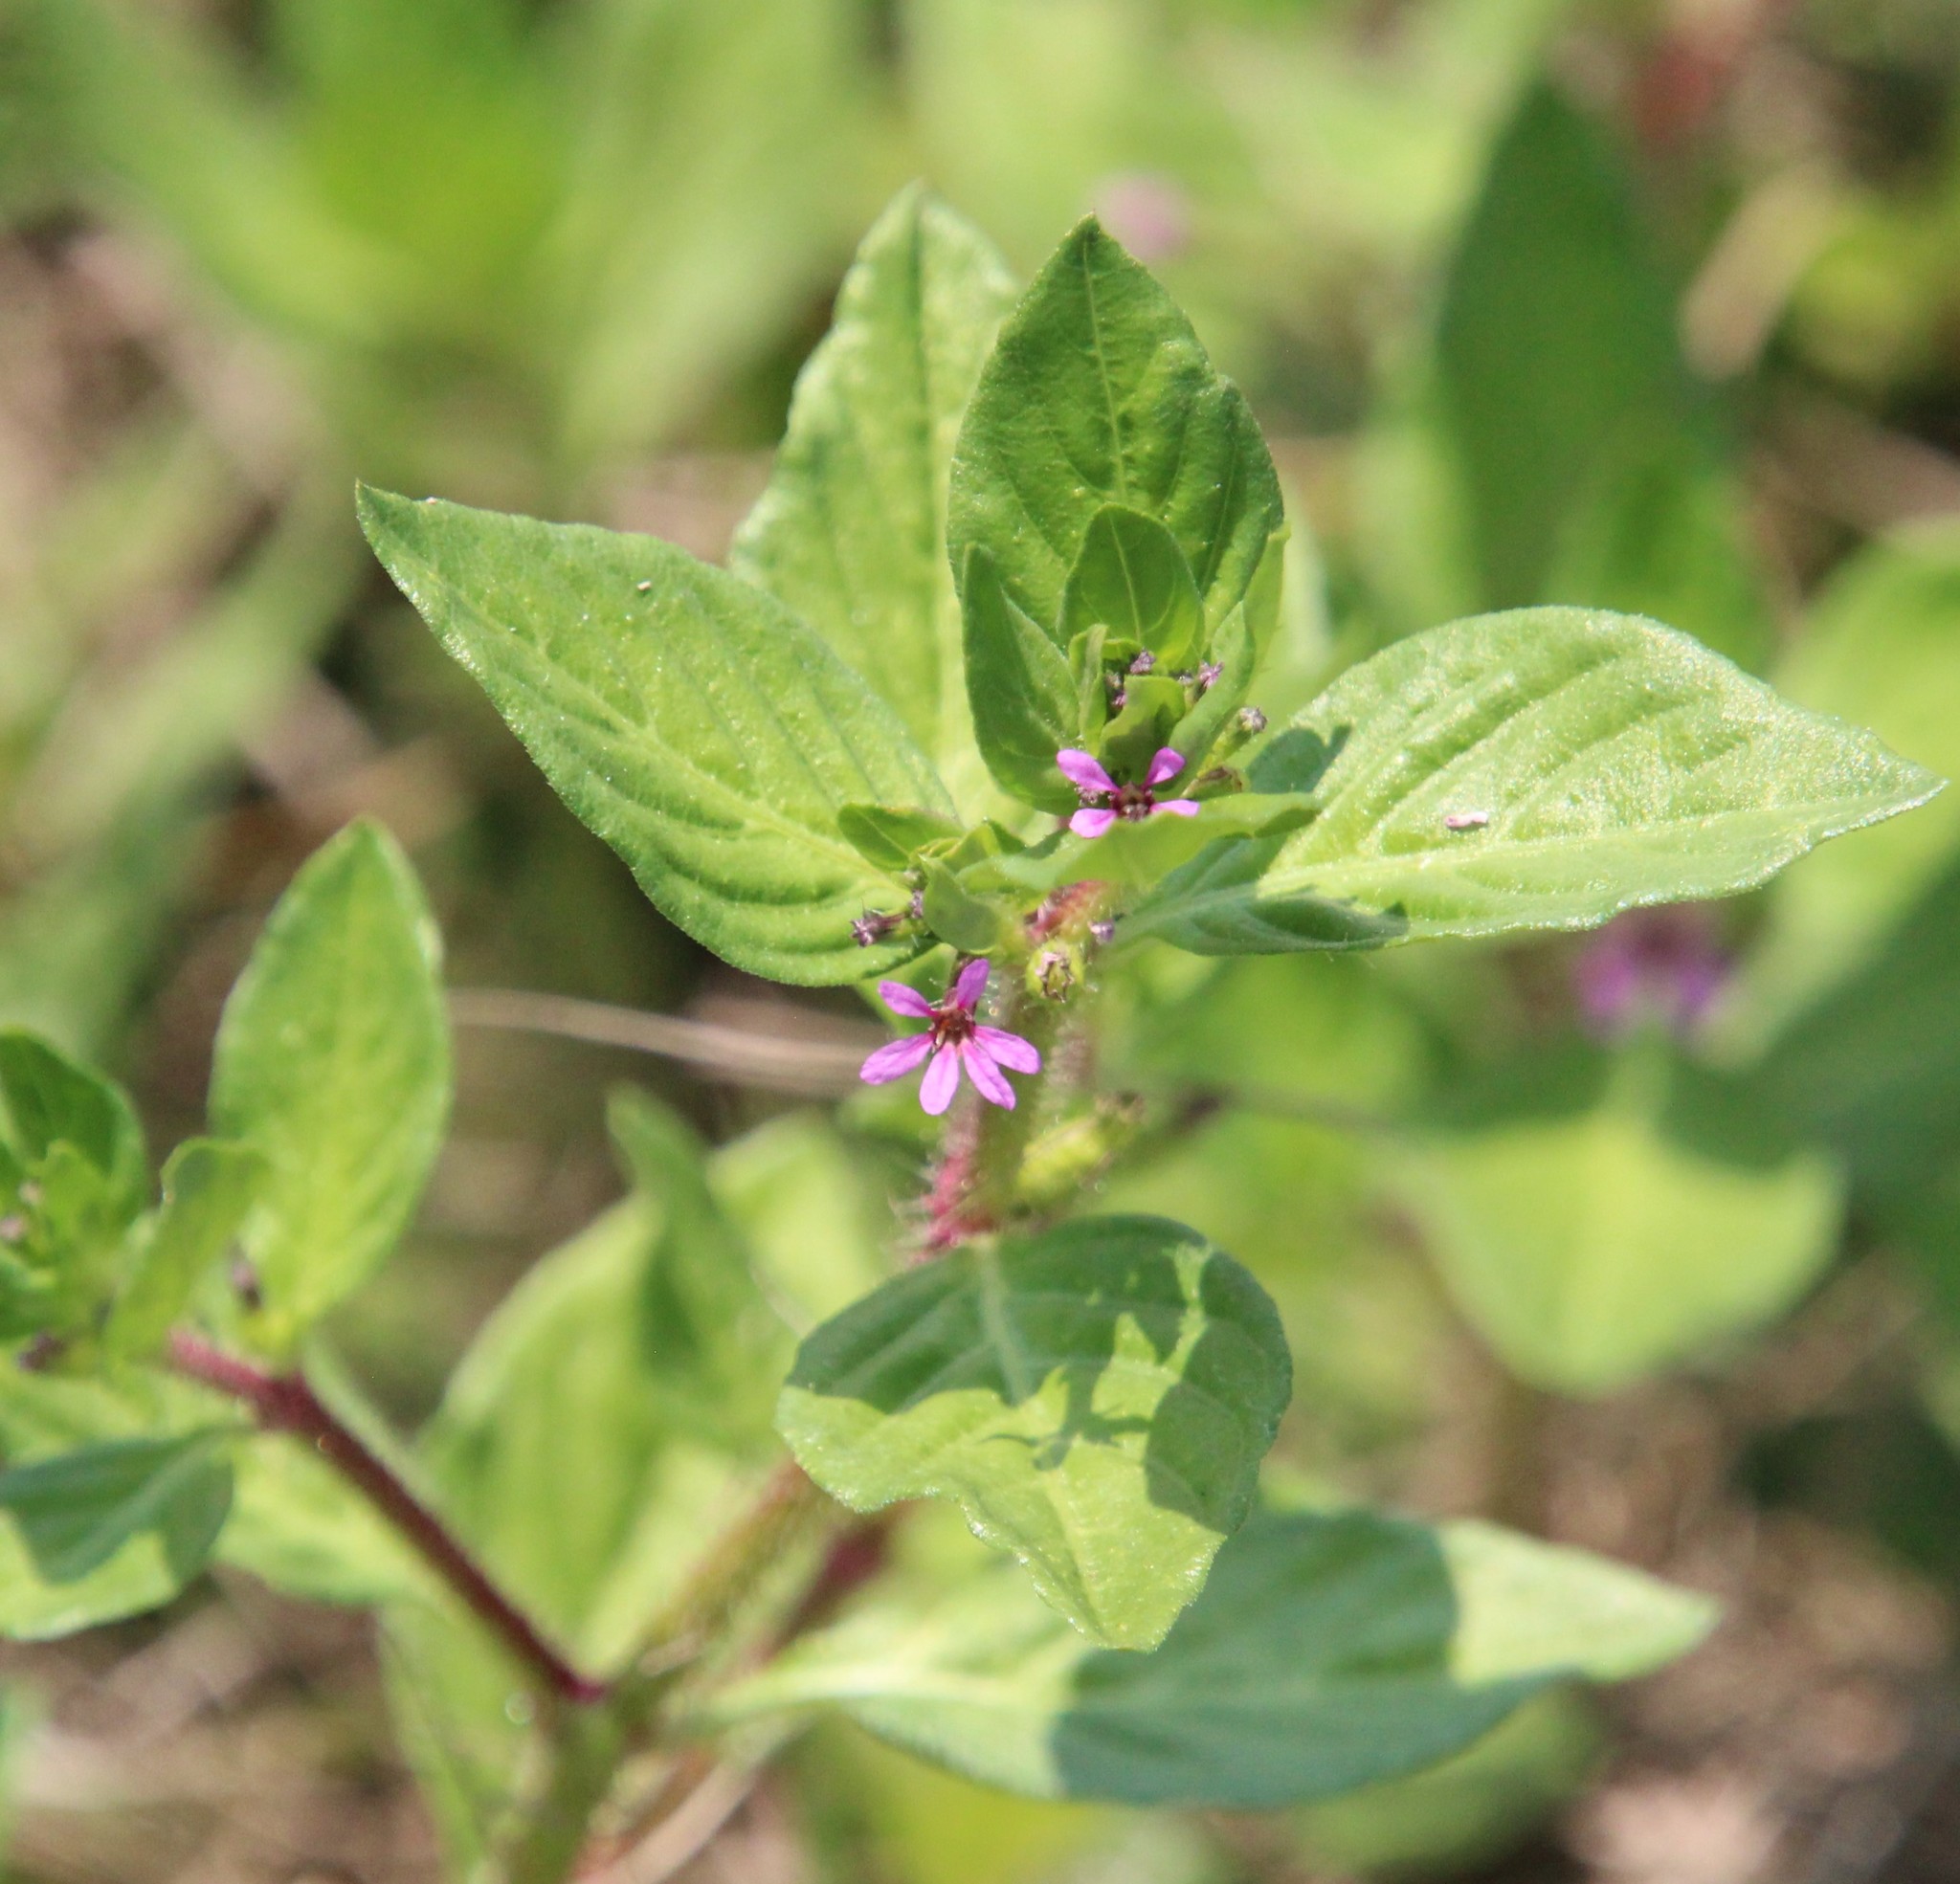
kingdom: Plantae
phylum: Tracheophyta
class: Magnoliopsida
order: Myrtales
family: Lythraceae
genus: Cuphea
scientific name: Cuphea carthagenensis
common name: Colombian waxweed
